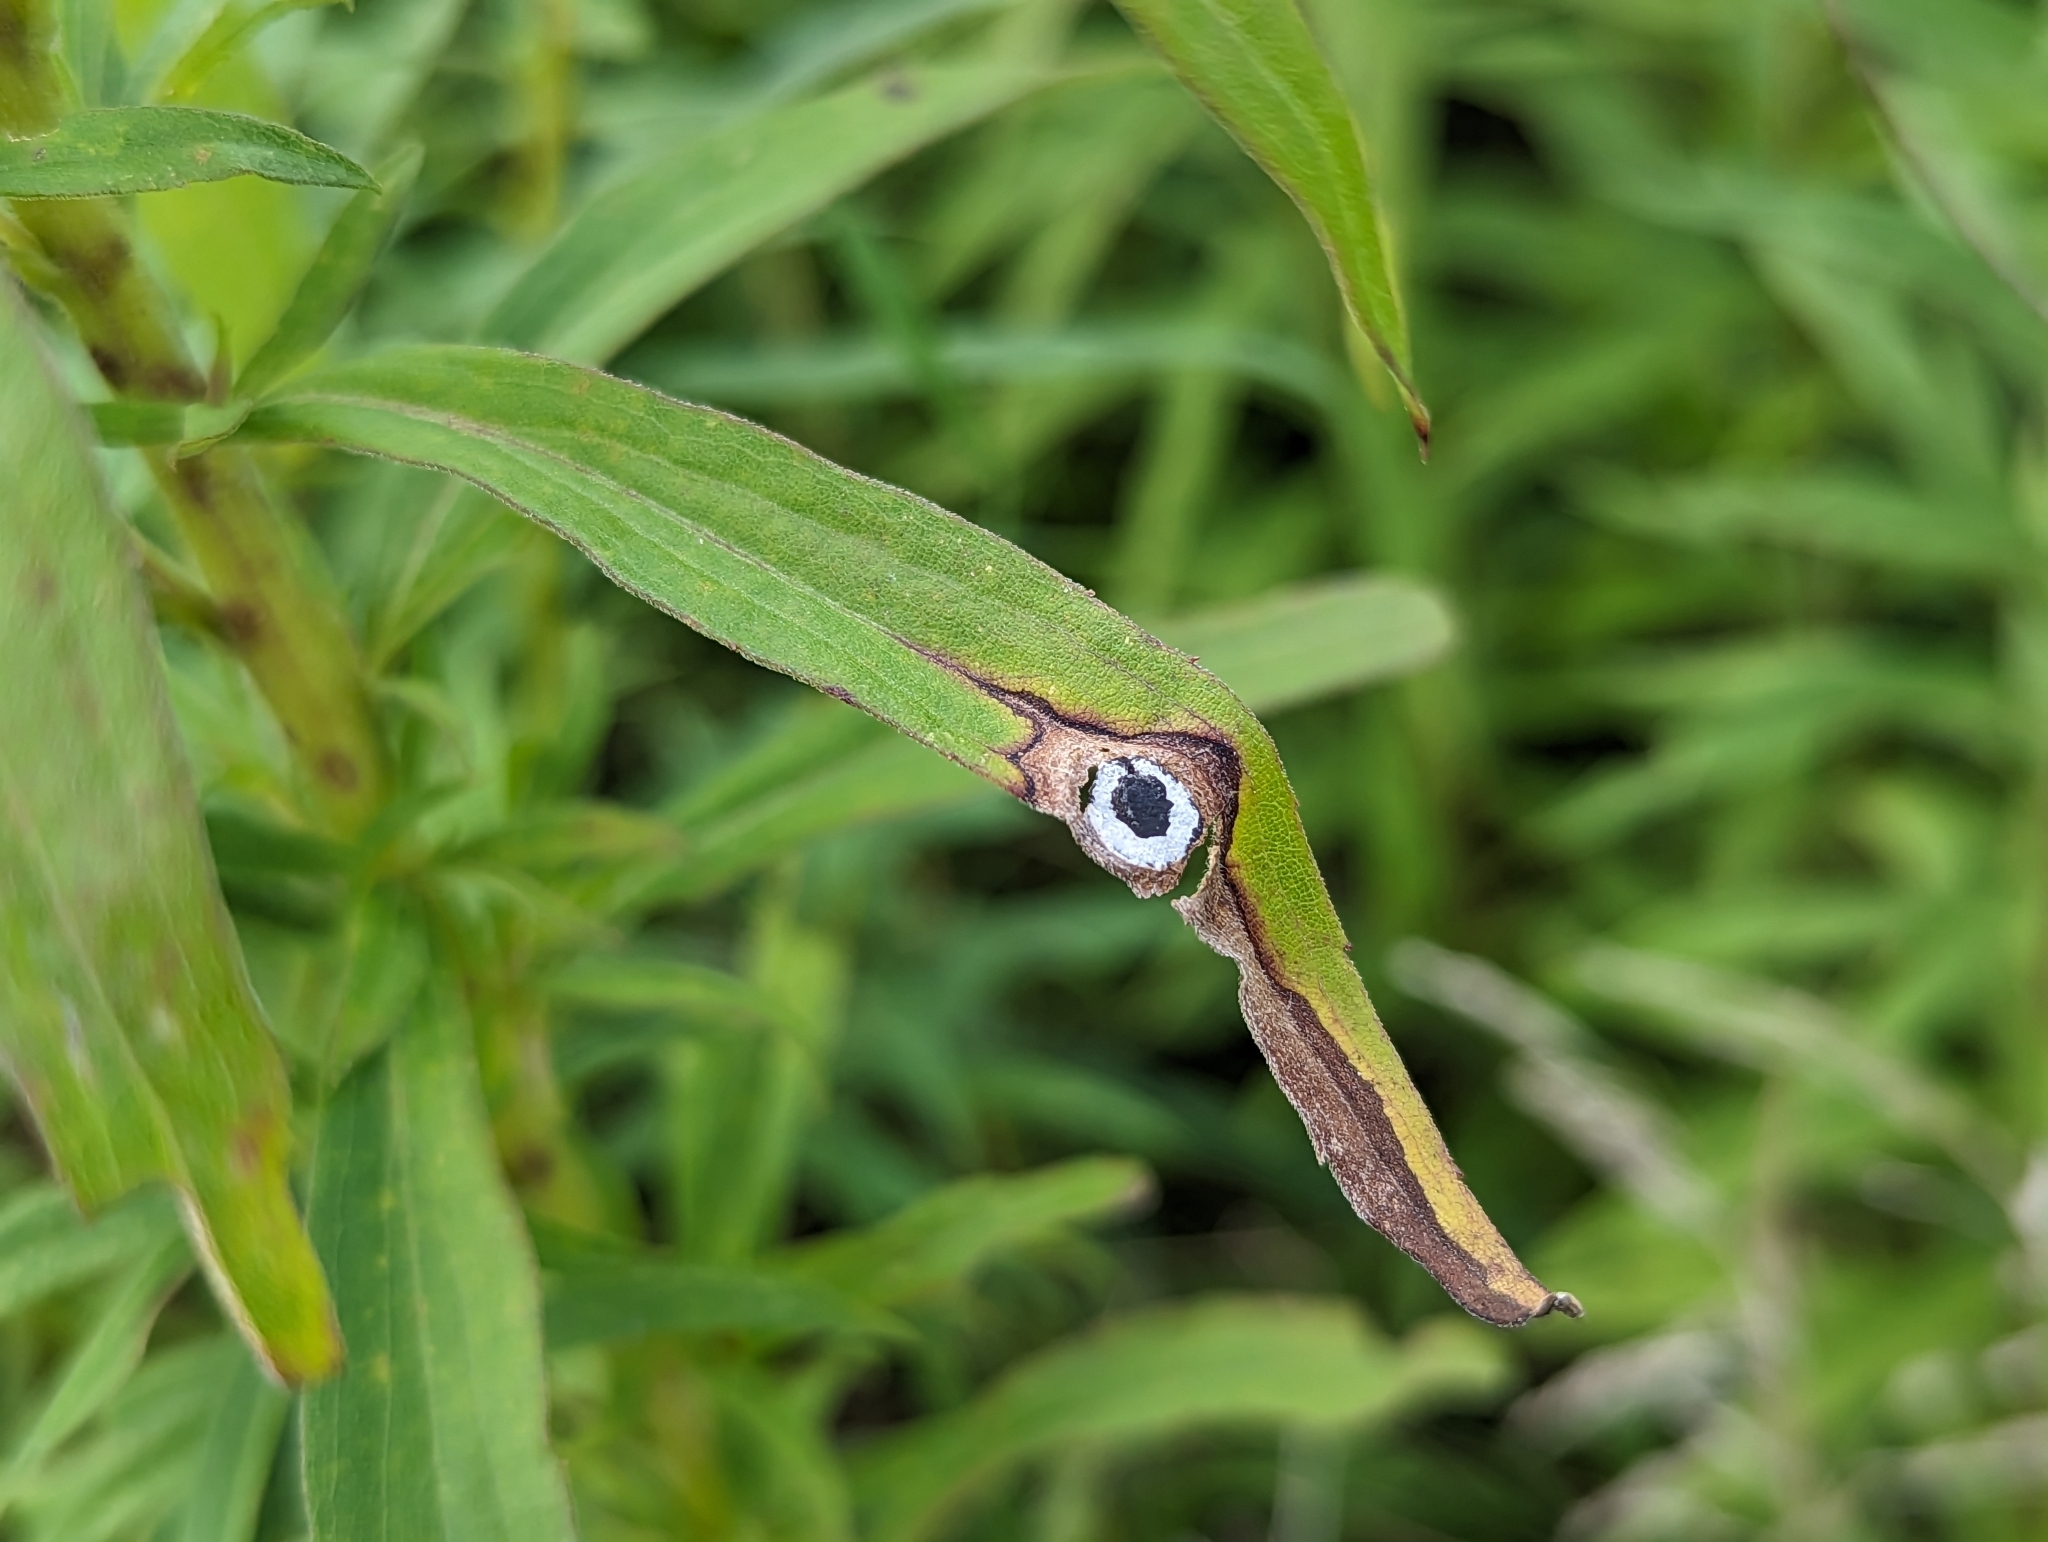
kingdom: Animalia
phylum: Arthropoda
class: Insecta
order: Diptera
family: Cecidomyiidae
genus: Asteromyia
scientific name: Asteromyia carbonifera
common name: Carbonifera goldenrod gall midge
